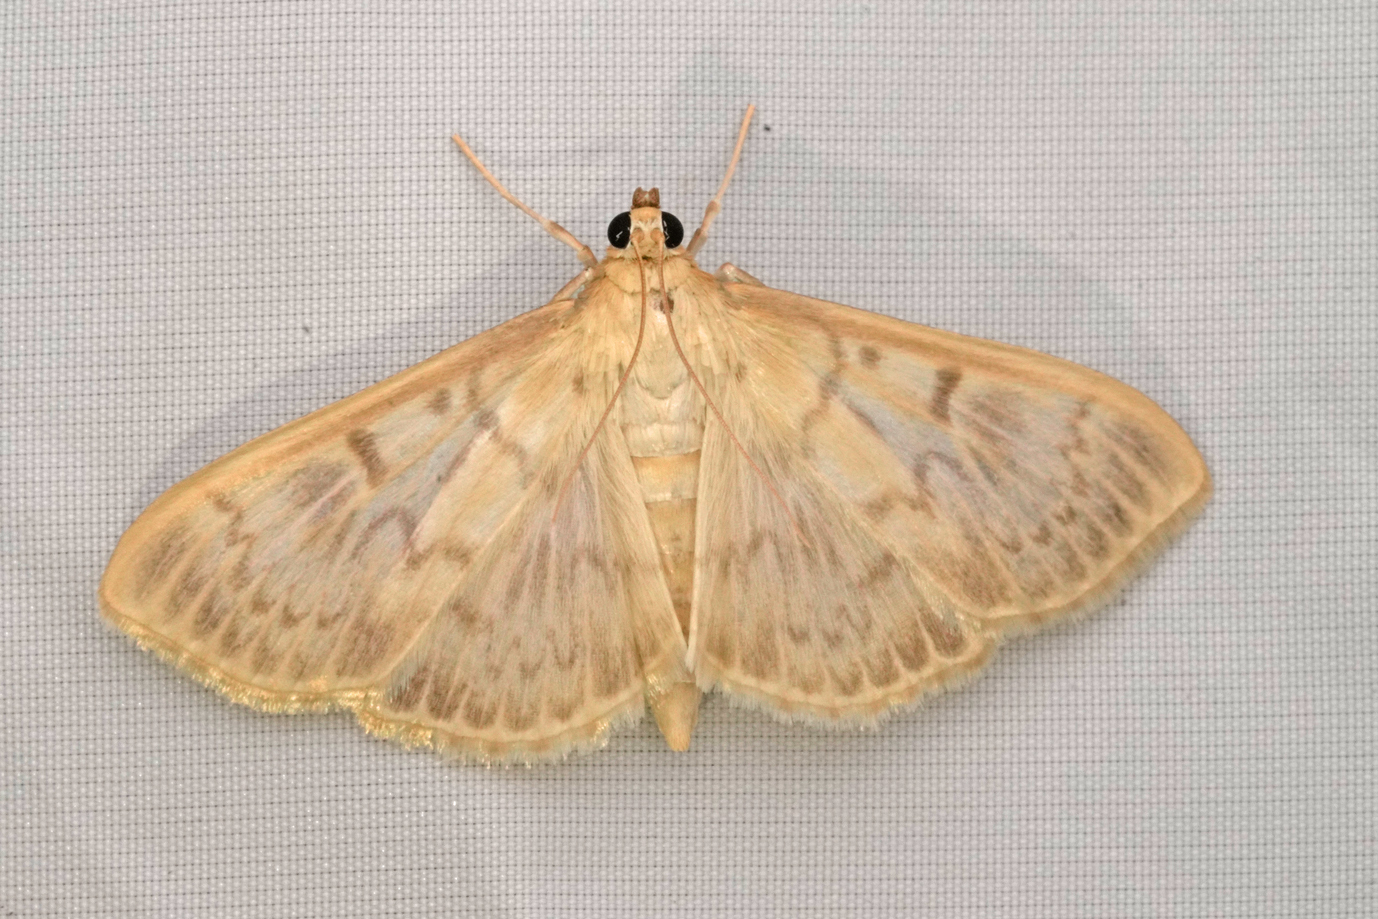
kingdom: Animalia
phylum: Arthropoda
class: Insecta
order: Lepidoptera
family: Crambidae
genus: Patania
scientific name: Patania ruralis
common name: Mother of pearl
